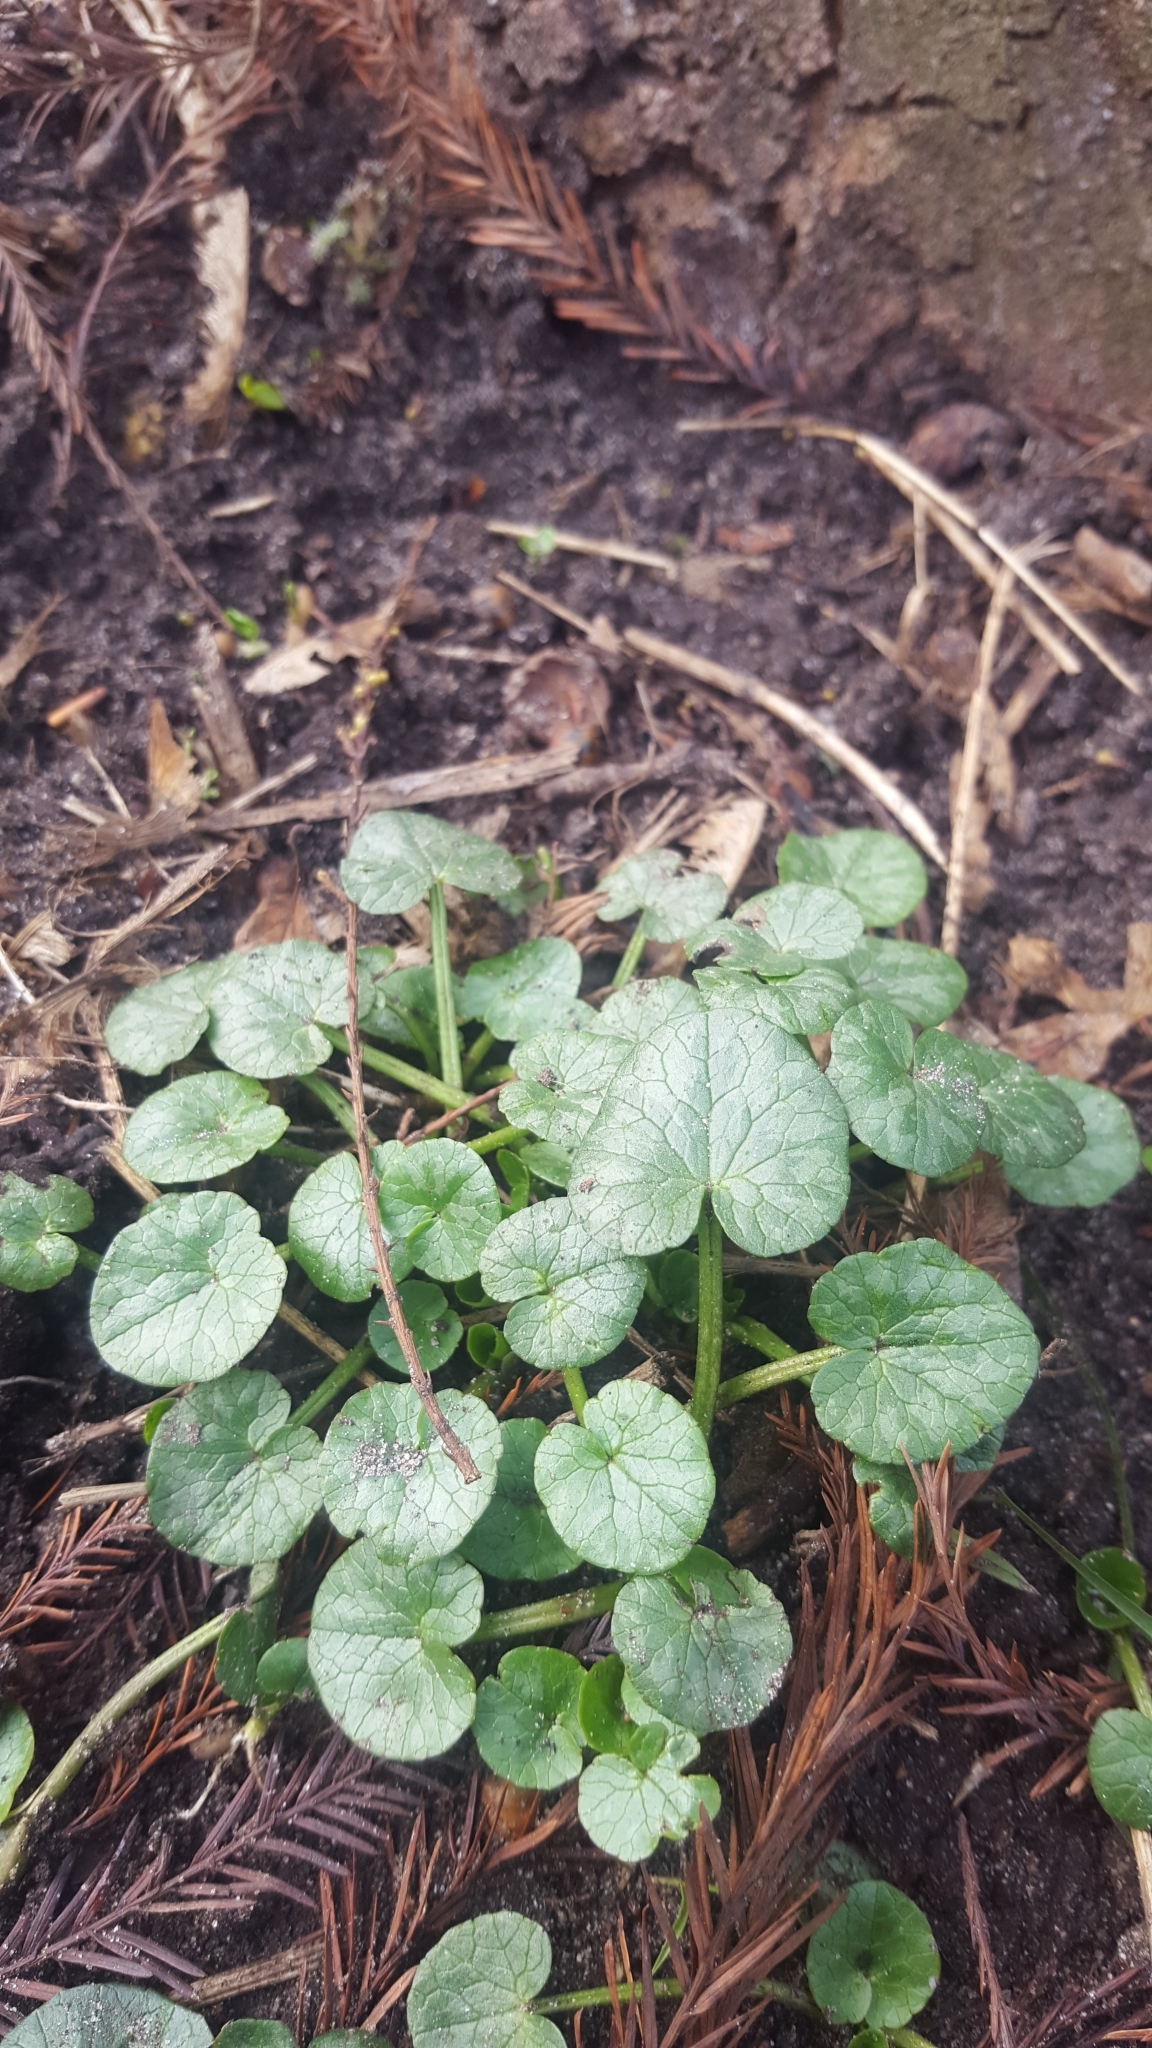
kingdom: Plantae
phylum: Tracheophyta
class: Magnoliopsida
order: Ranunculales
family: Ranunculaceae
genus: Ficaria
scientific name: Ficaria verna
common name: Lesser celandine
